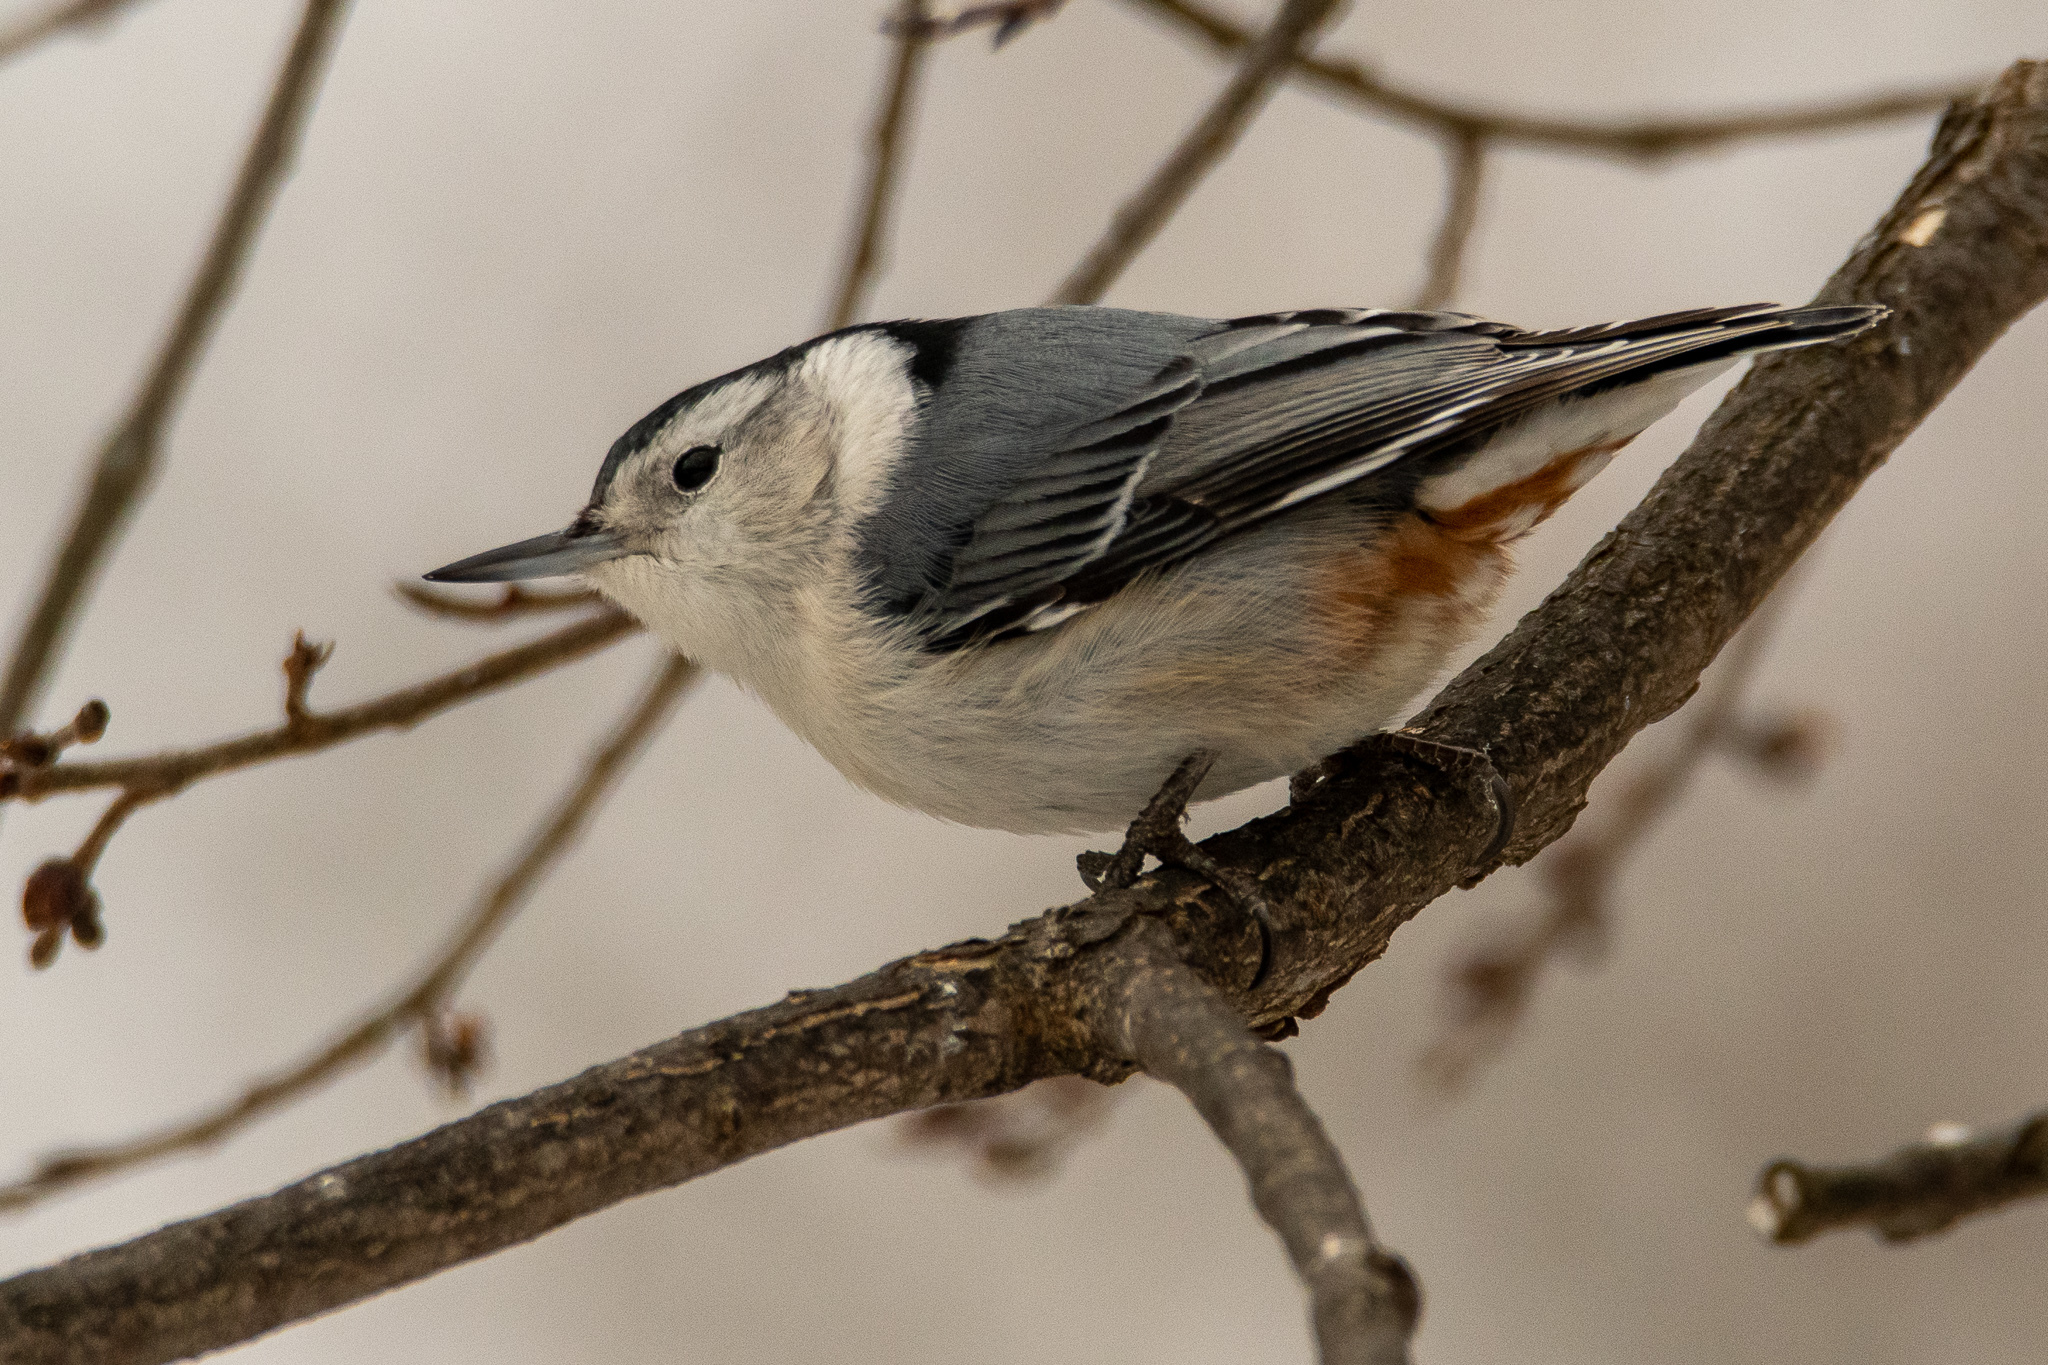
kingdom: Animalia
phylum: Chordata
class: Aves
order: Passeriformes
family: Sittidae
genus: Sitta
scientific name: Sitta carolinensis
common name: White-breasted nuthatch
